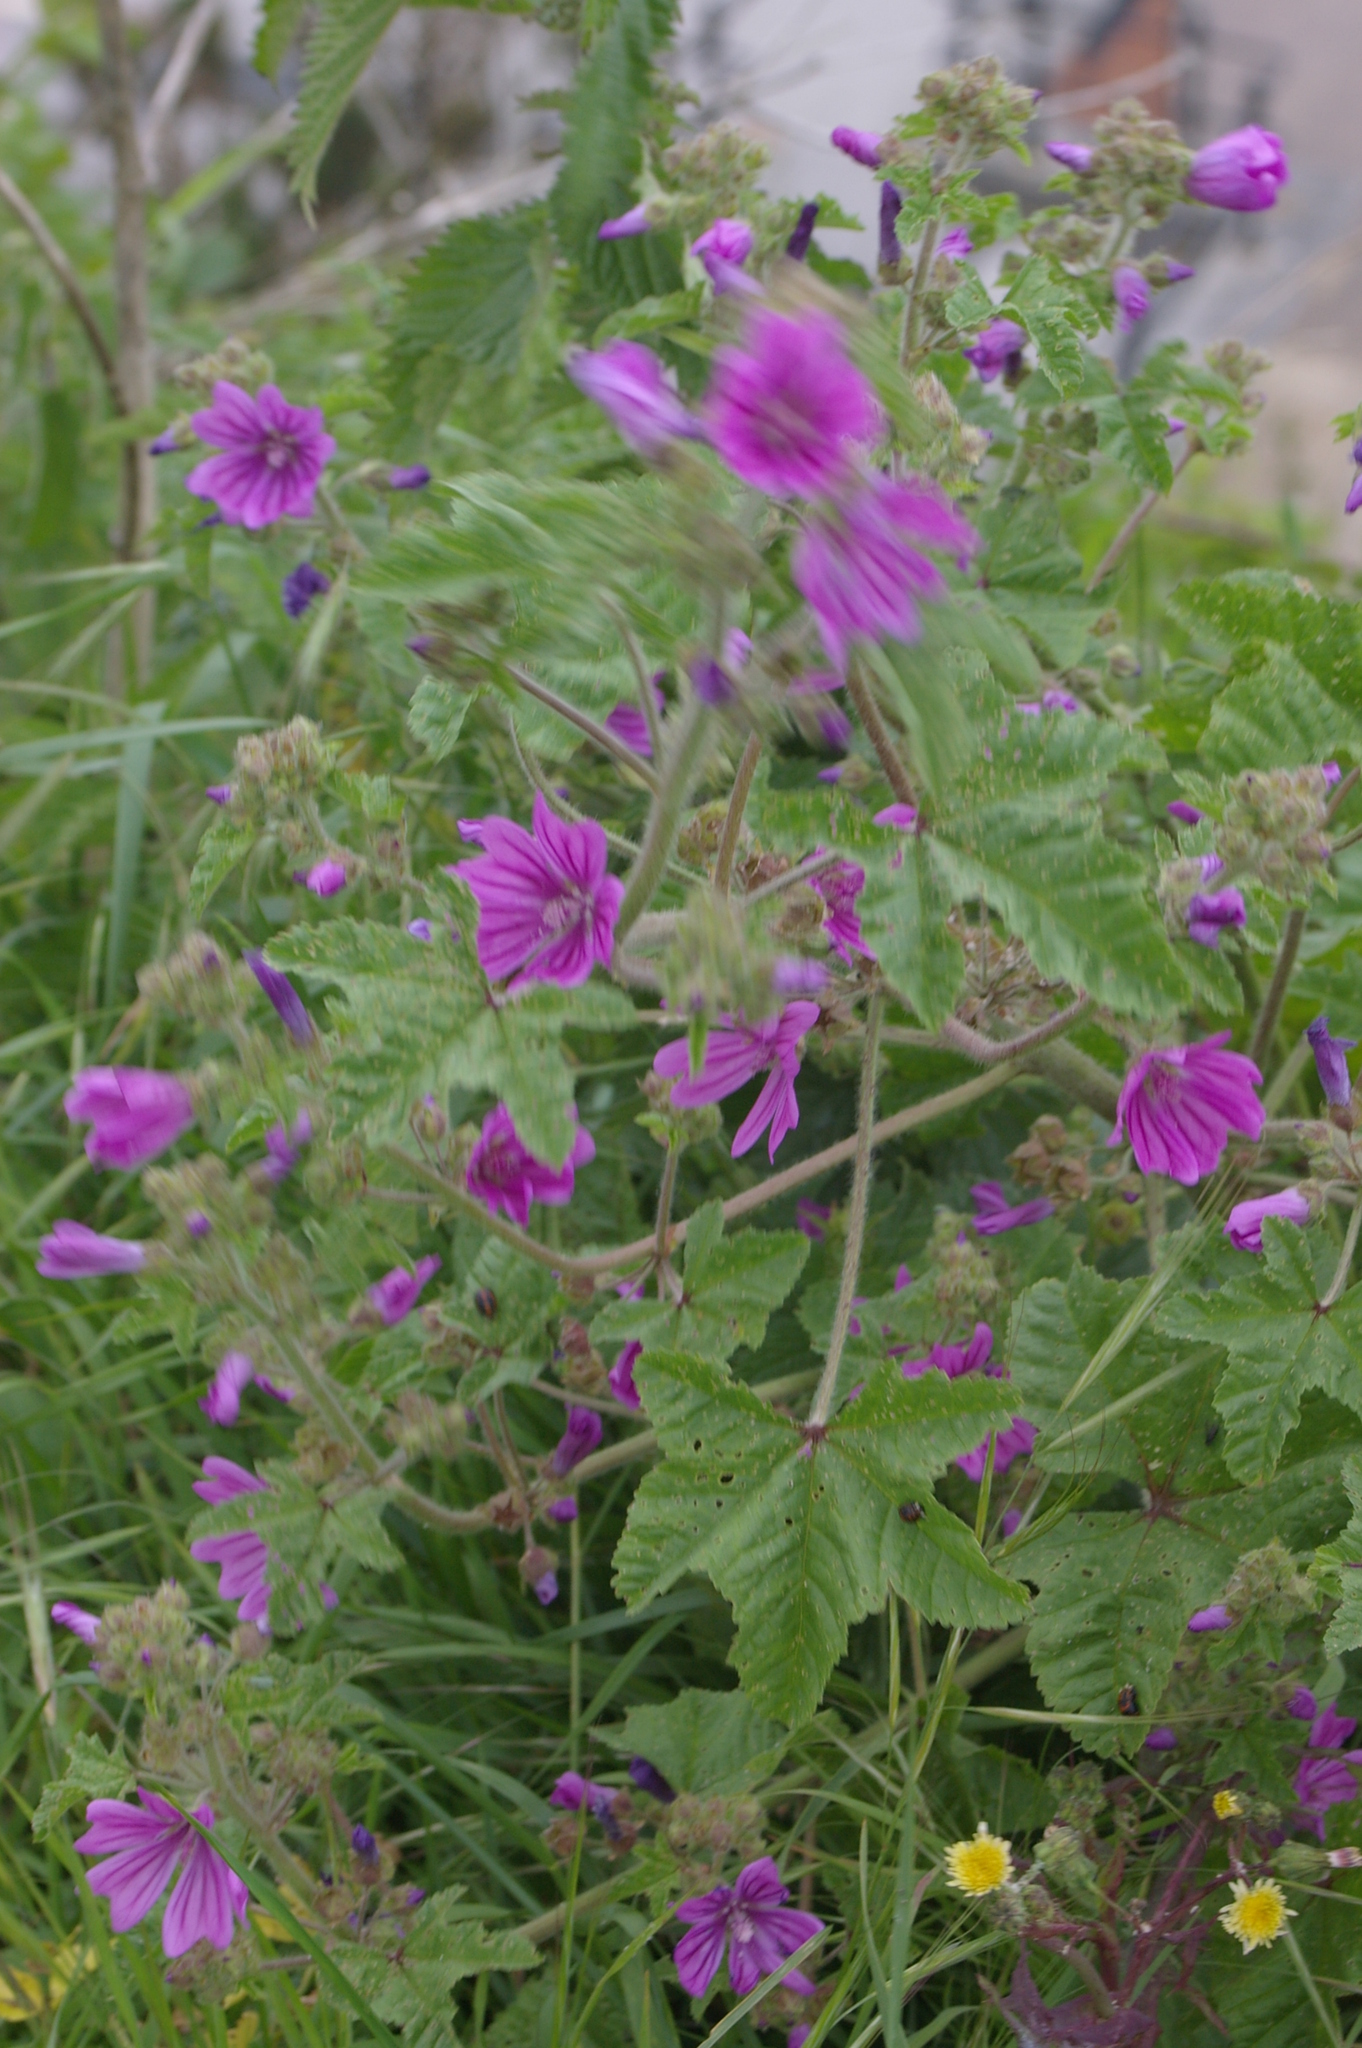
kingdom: Plantae
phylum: Tracheophyta
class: Magnoliopsida
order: Malvales
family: Malvaceae
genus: Malva
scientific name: Malva sylvestris
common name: Common mallow
